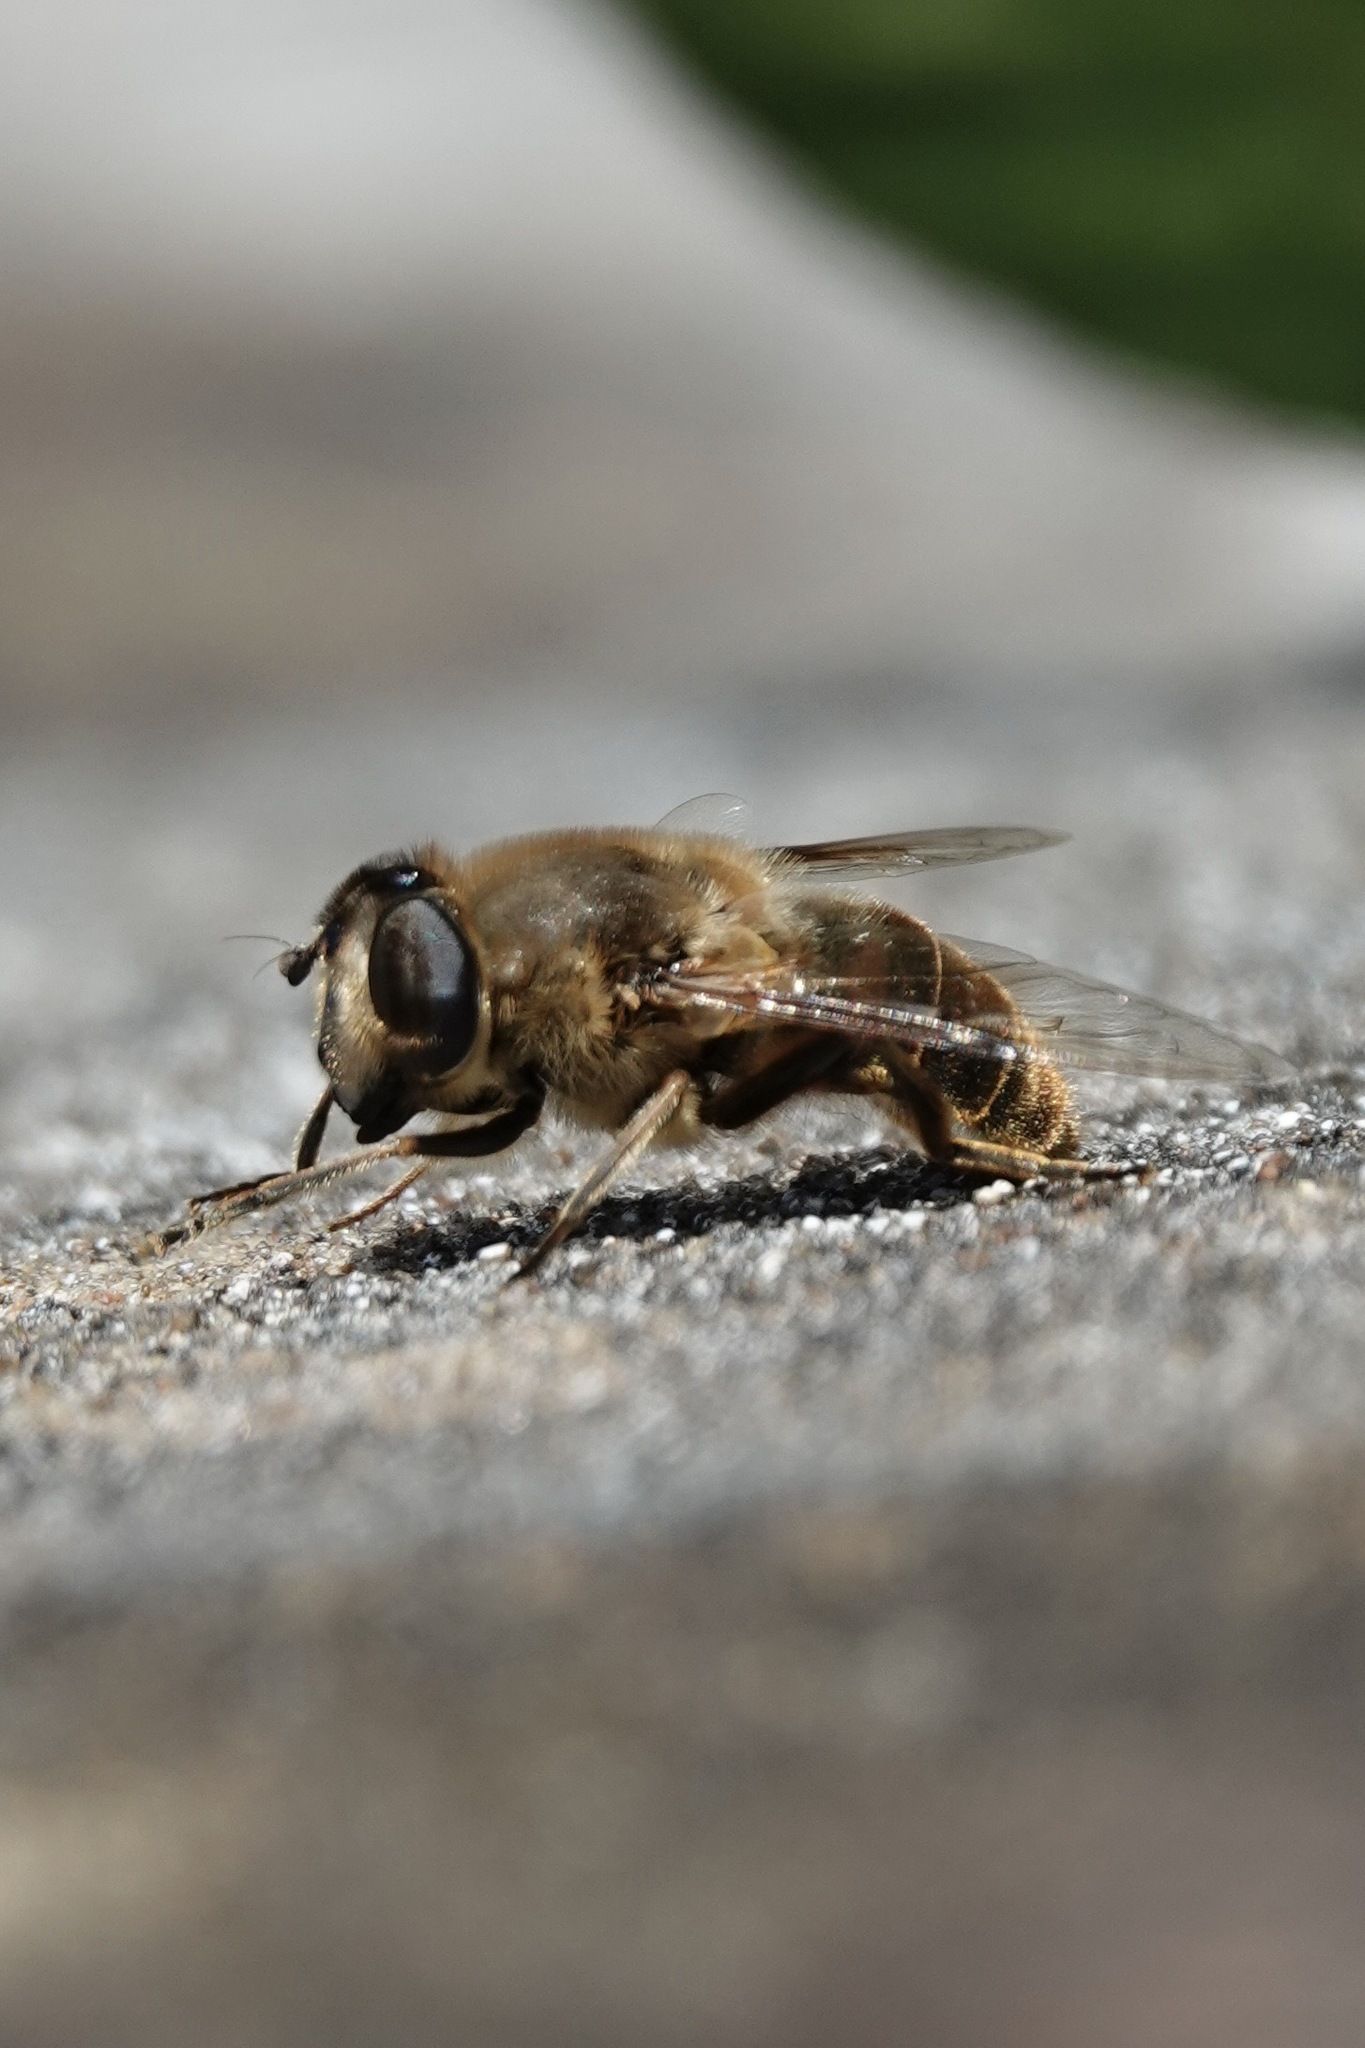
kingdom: Animalia
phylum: Arthropoda
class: Insecta
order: Diptera
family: Syrphidae
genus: Eristalis
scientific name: Eristalis tenax
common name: Drone fly
